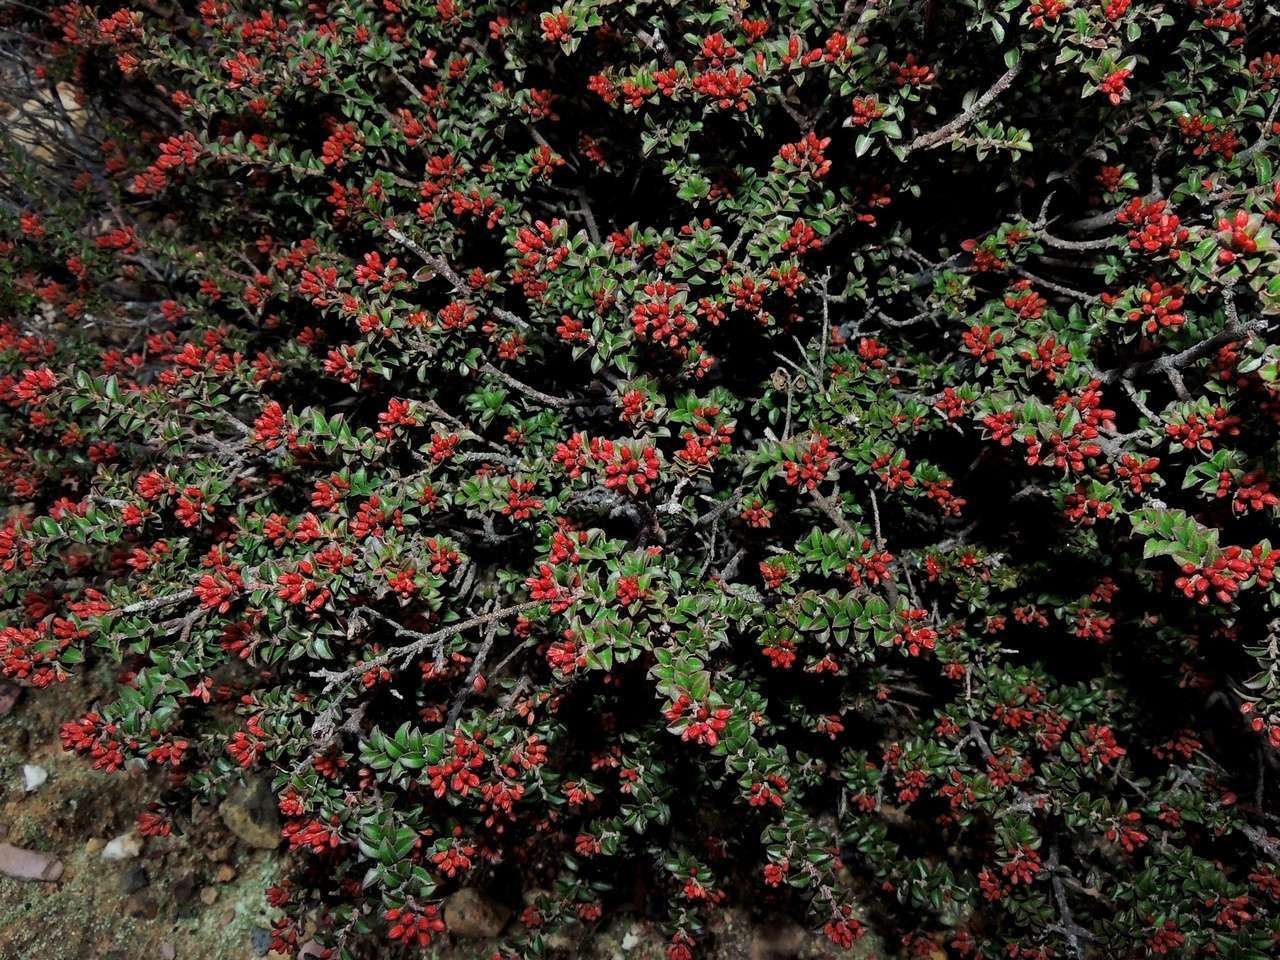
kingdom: Plantae
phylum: Tracheophyta
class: Magnoliopsida
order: Sapindales
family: Rutaceae
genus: Leionema
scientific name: Leionema lamprophyllum
